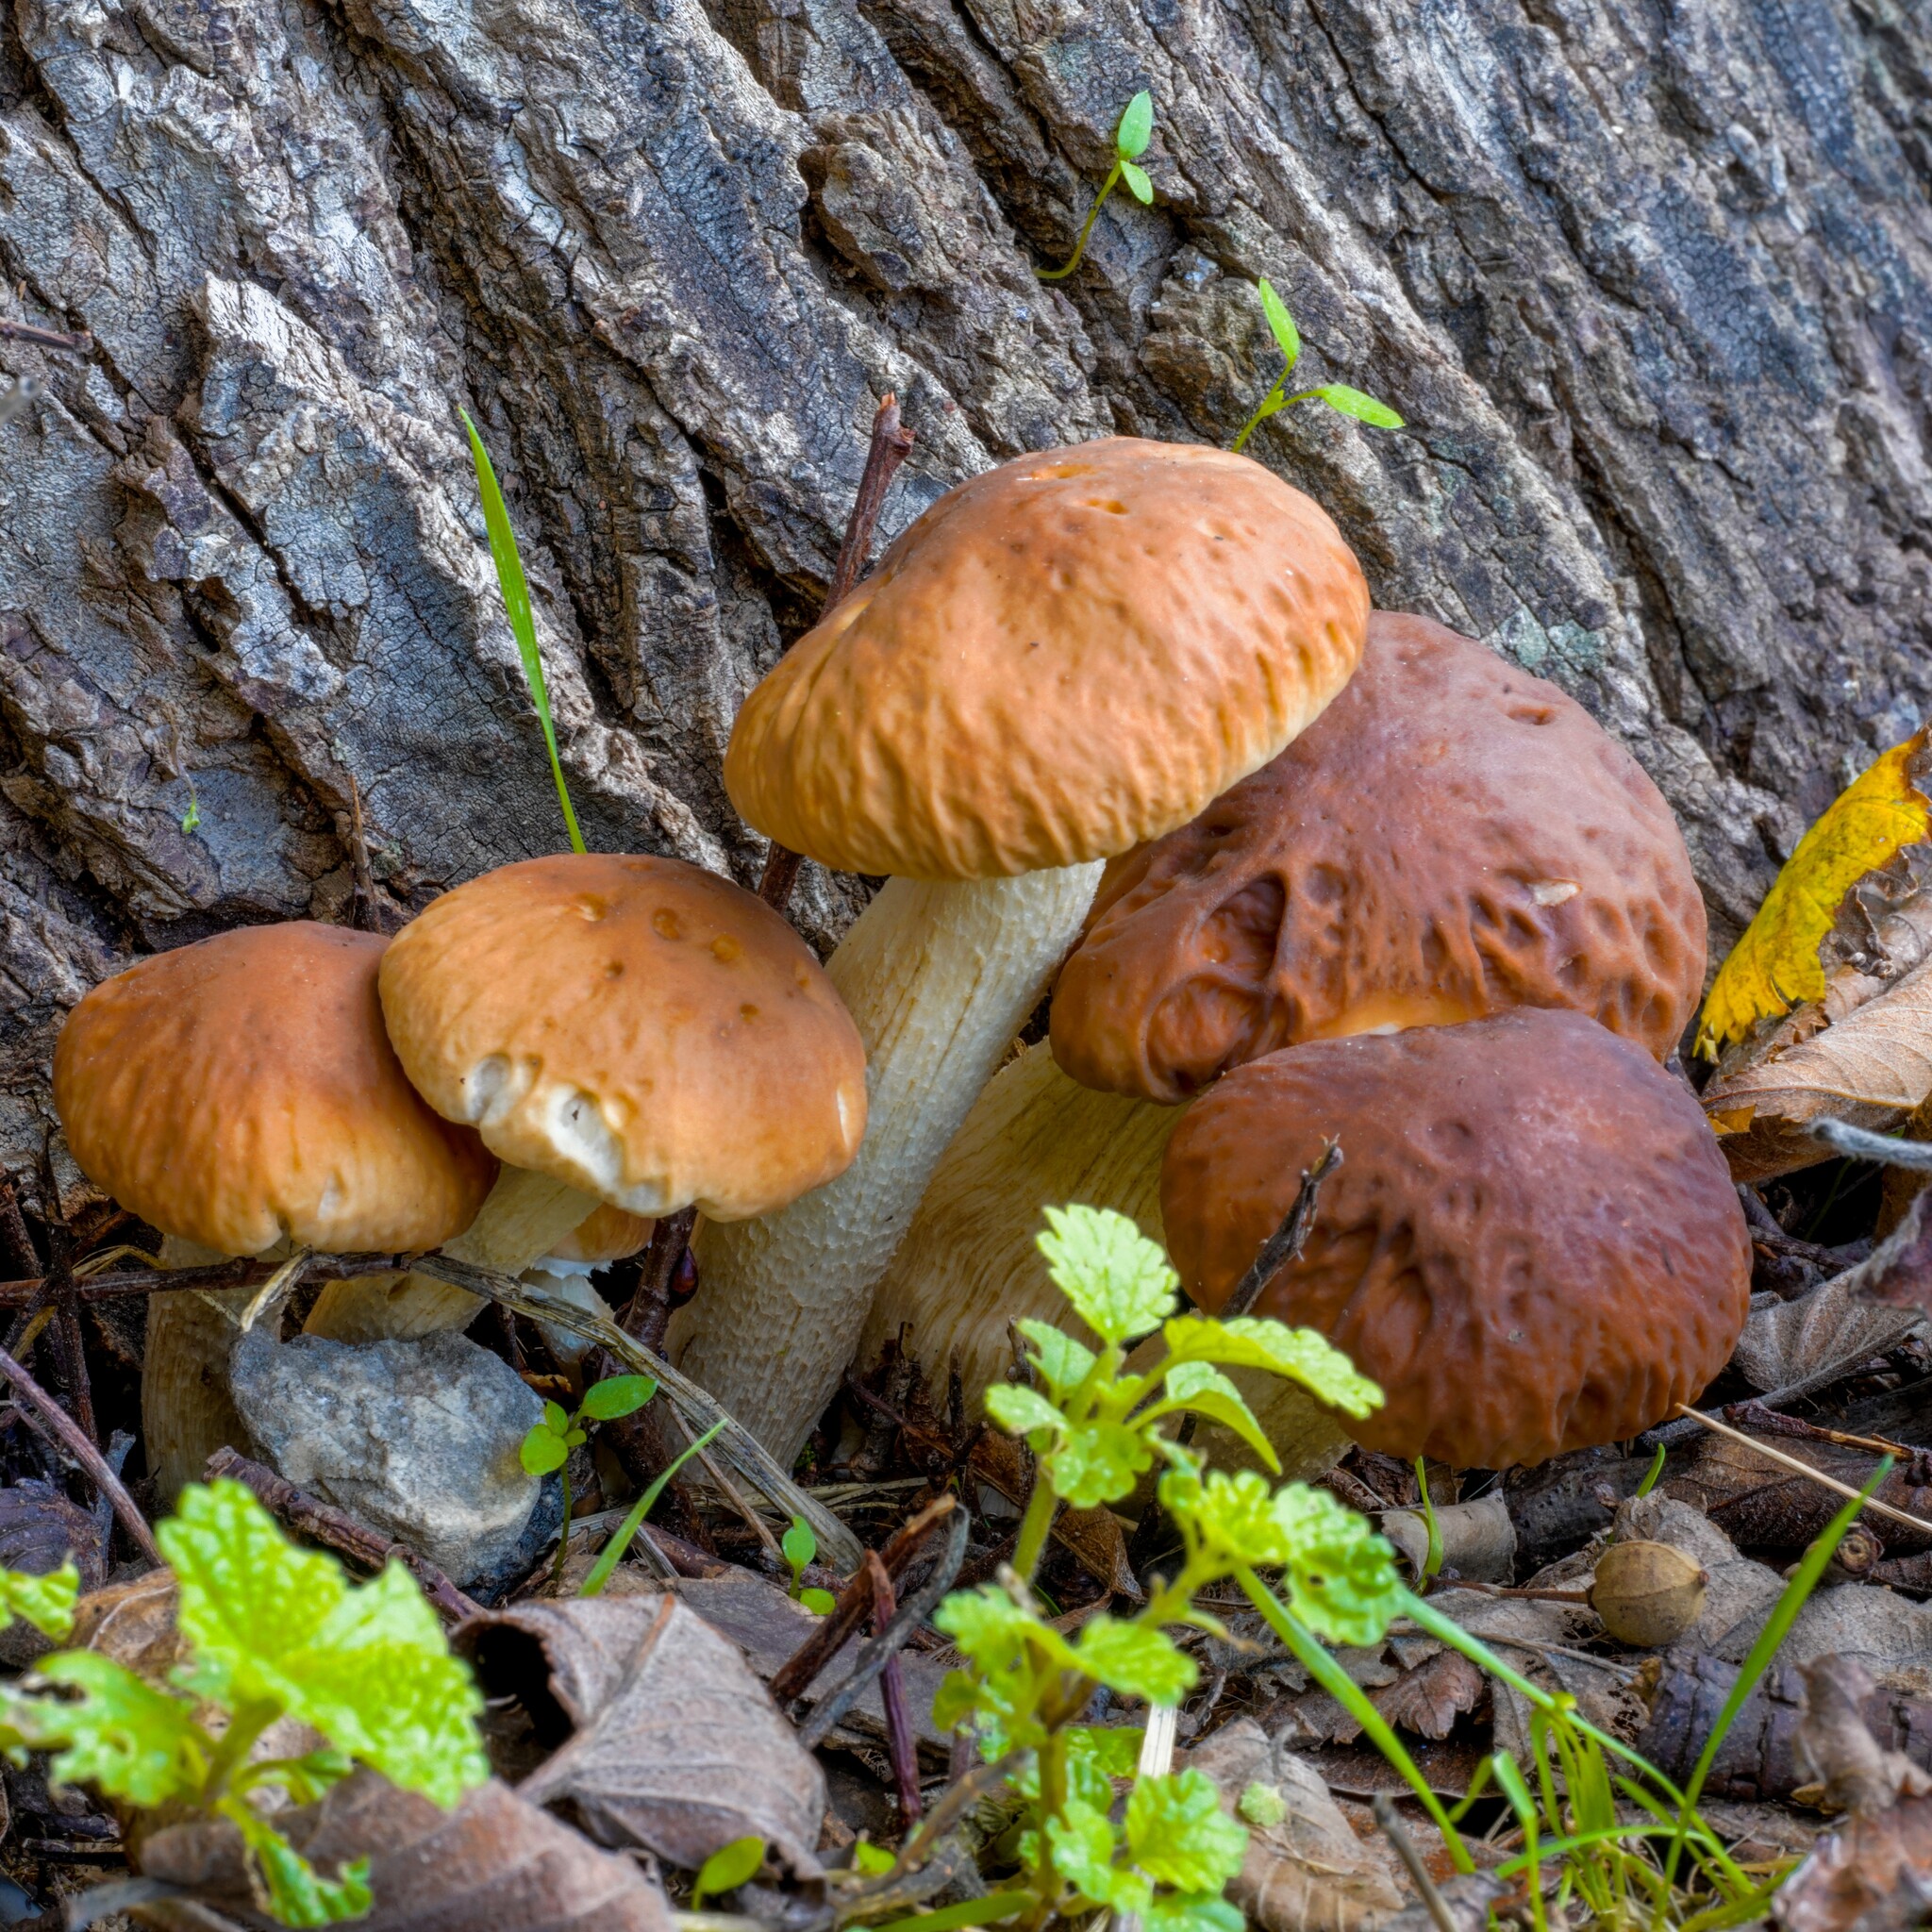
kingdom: Fungi
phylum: Basidiomycota
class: Agaricomycetes
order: Agaricales
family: Tubariaceae
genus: Cyclocybe
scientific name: Cyclocybe cylindracea
